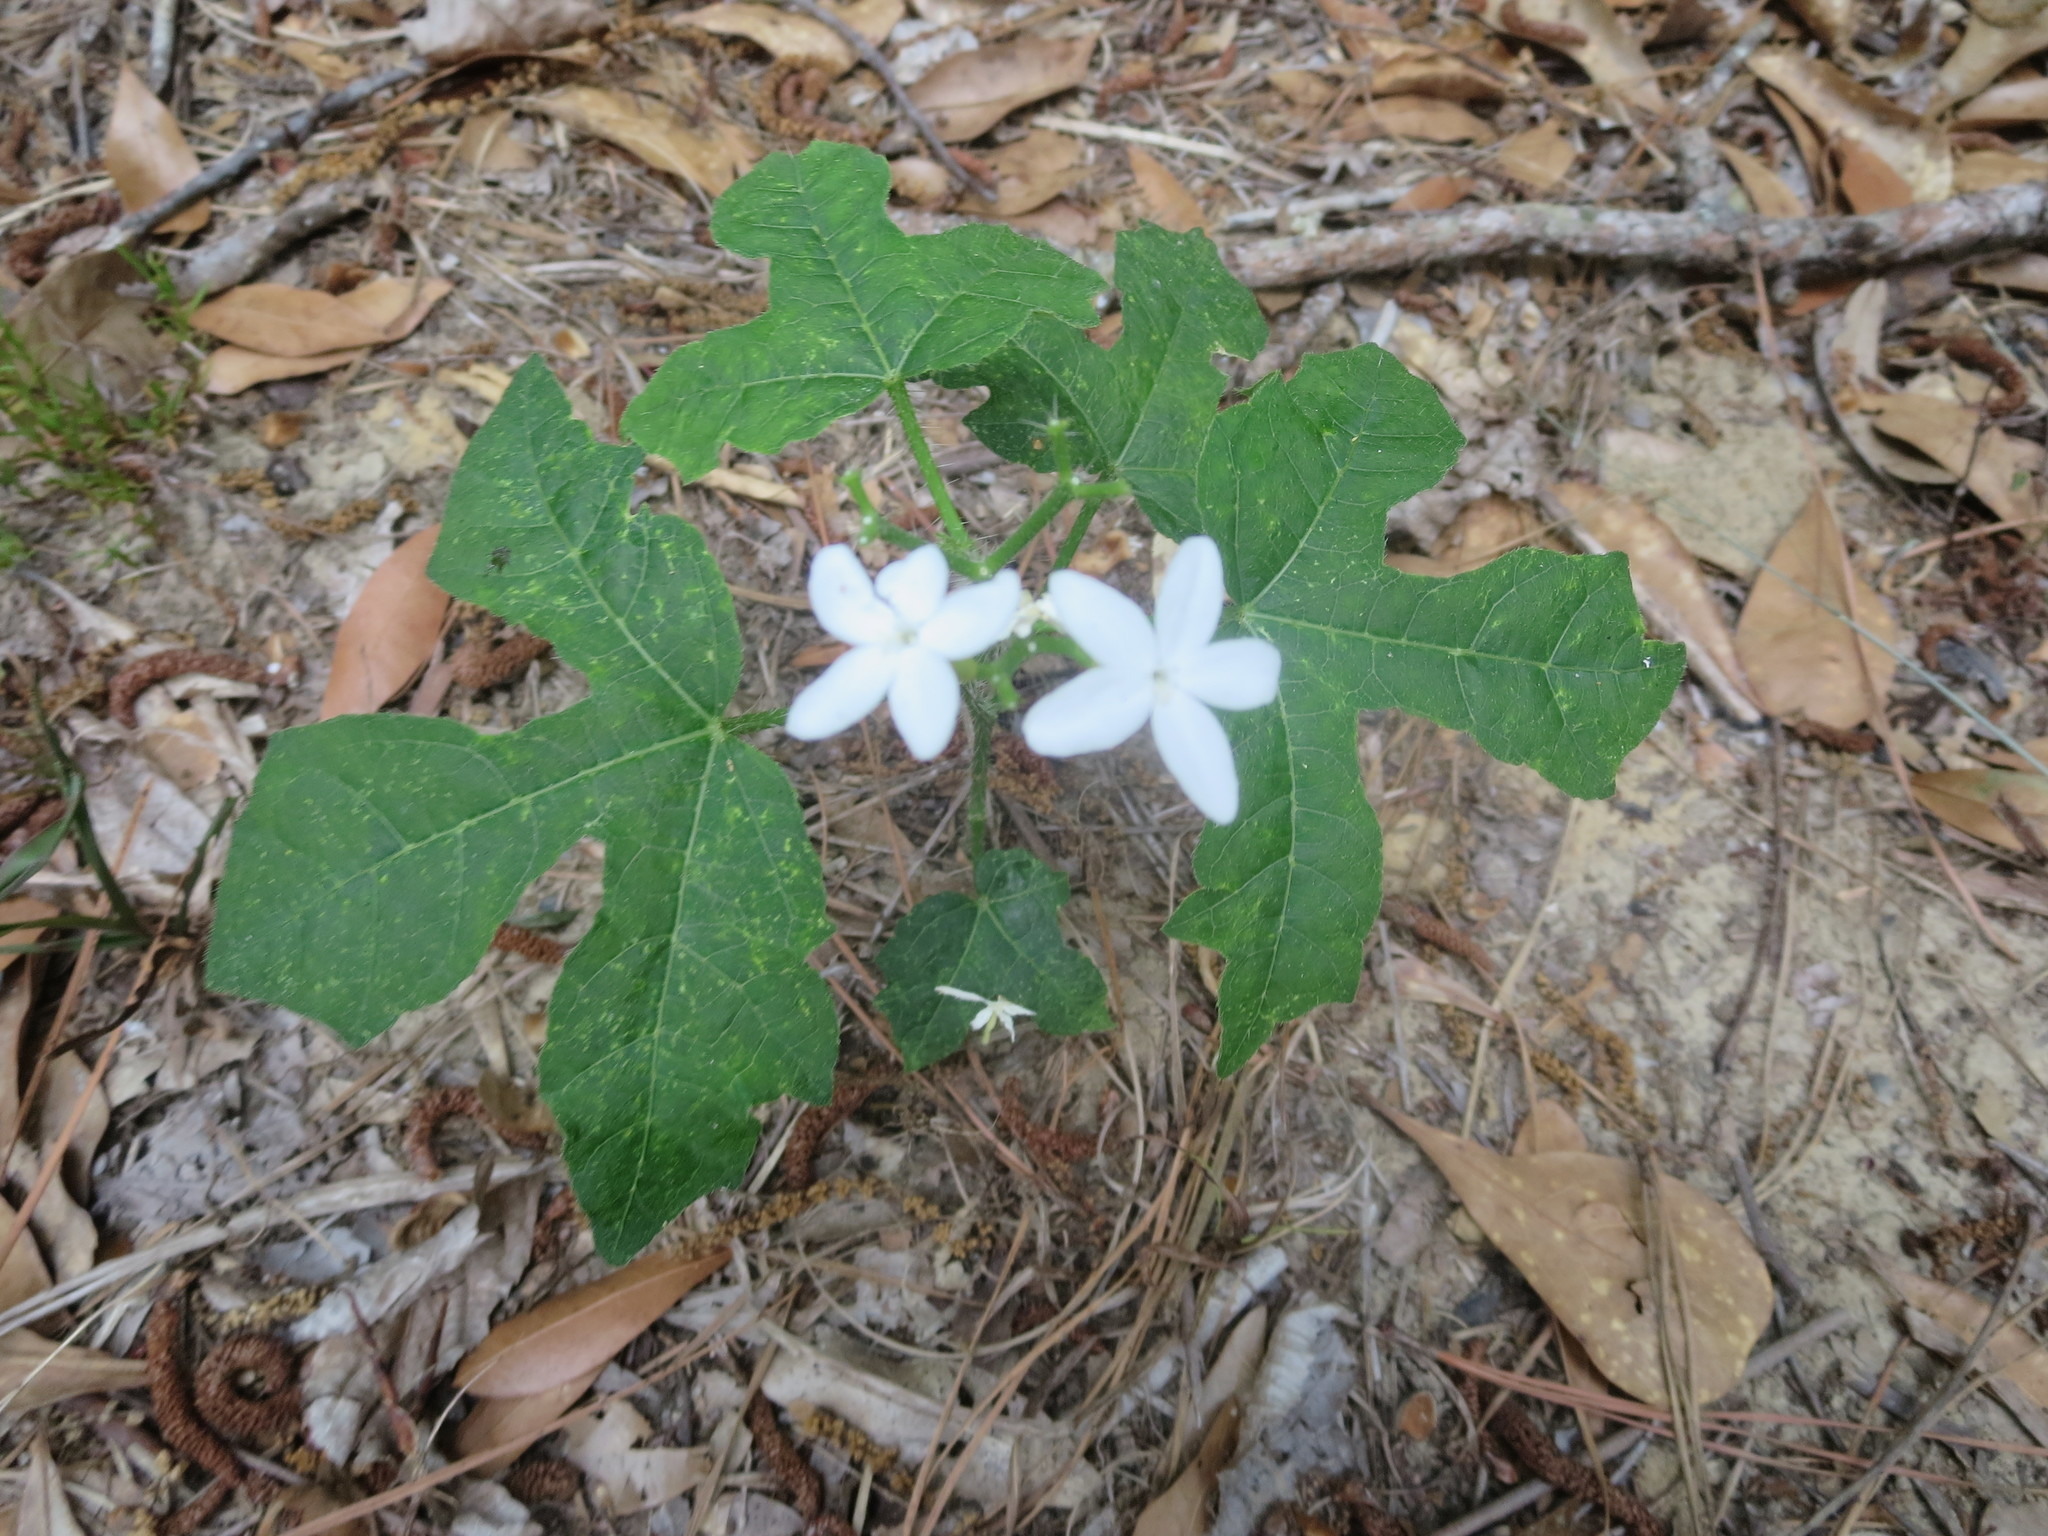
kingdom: Plantae
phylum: Tracheophyta
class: Magnoliopsida
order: Malpighiales
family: Euphorbiaceae
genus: Cnidoscolus
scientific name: Cnidoscolus stimulosus
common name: Bull-nettle
